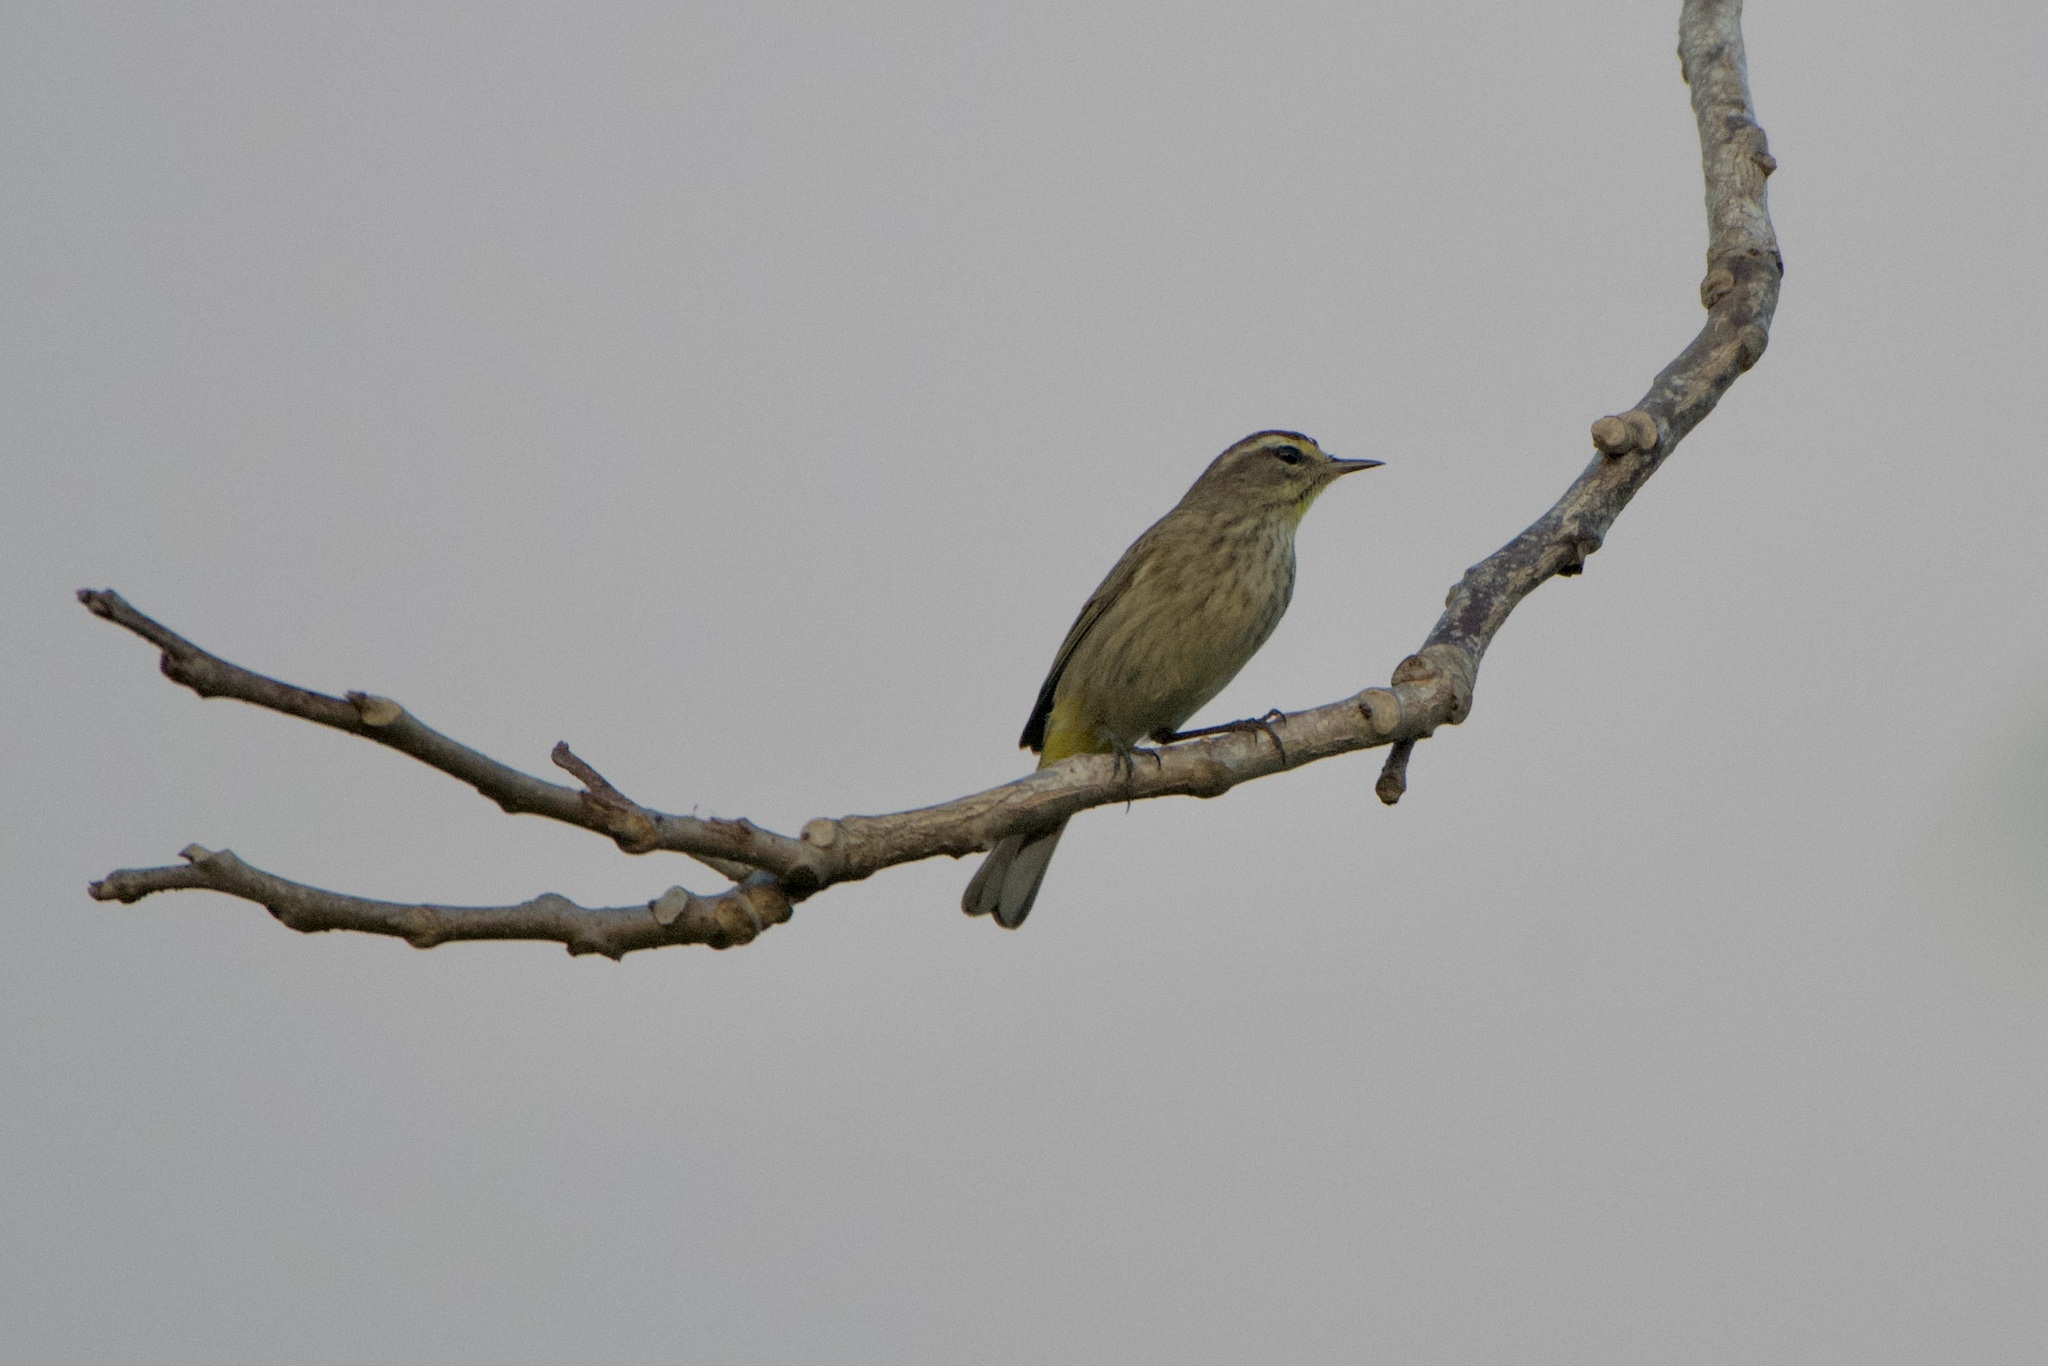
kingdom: Animalia
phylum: Chordata
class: Aves
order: Passeriformes
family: Parulidae
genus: Setophaga
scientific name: Setophaga palmarum
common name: Palm warbler
